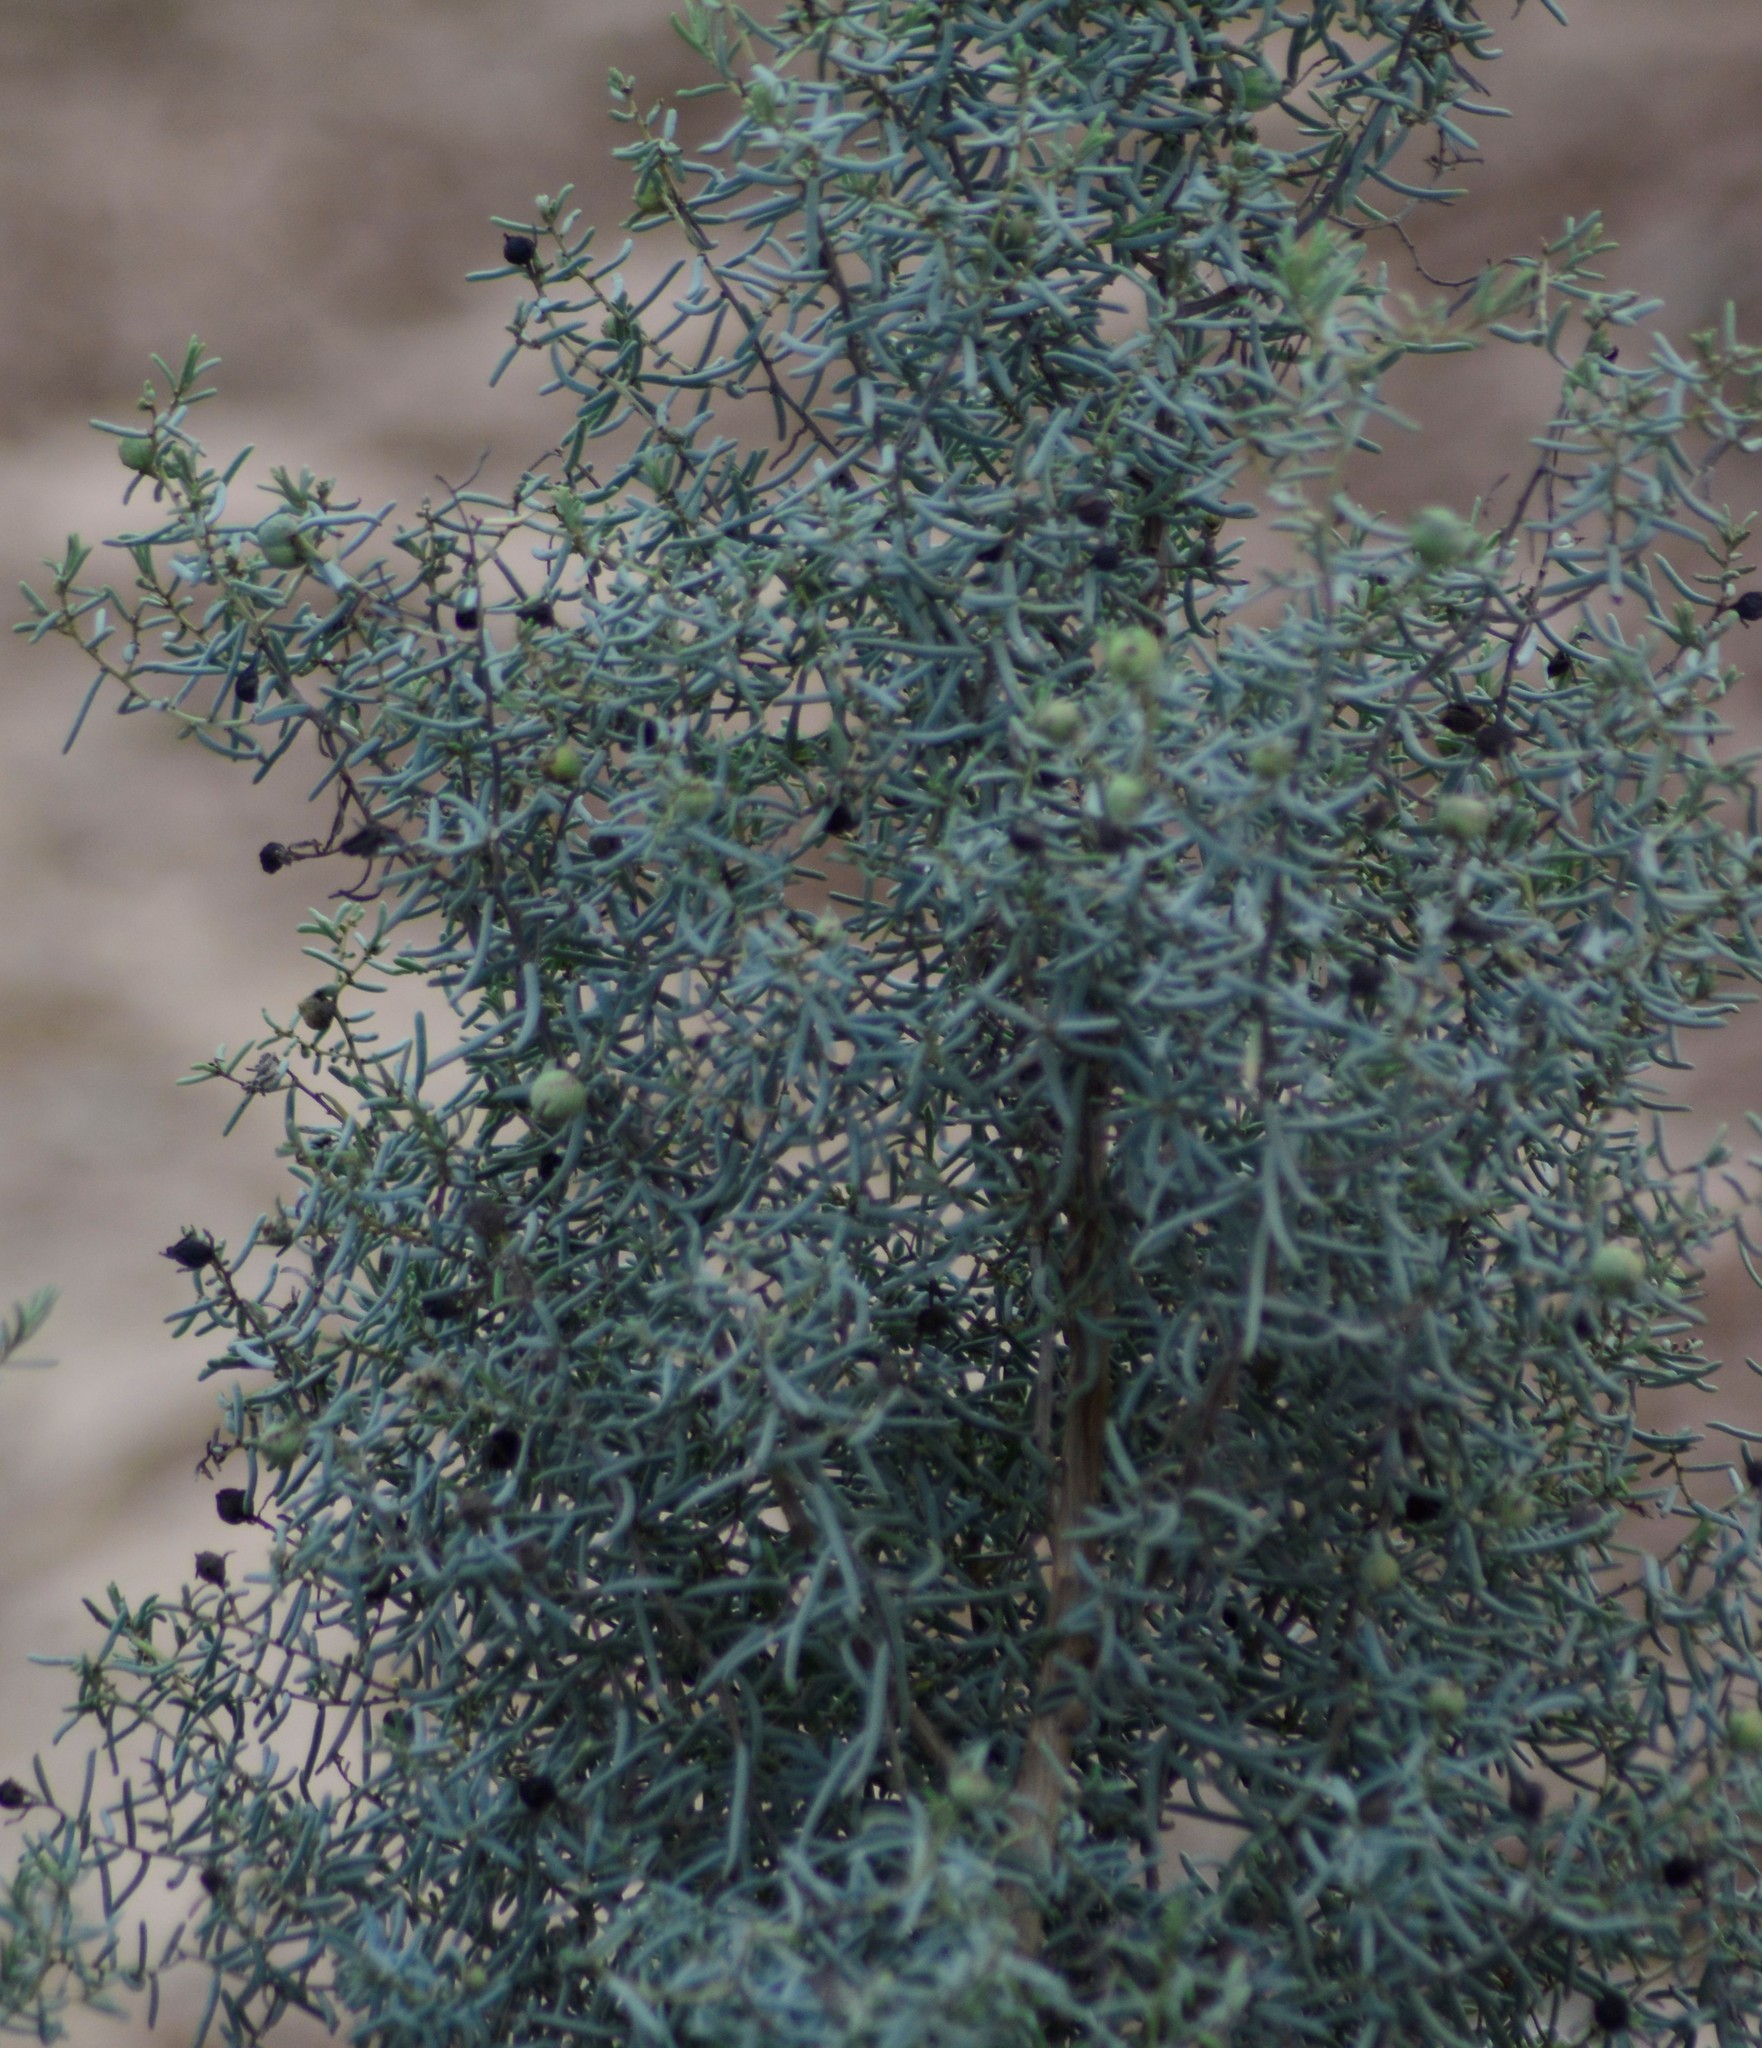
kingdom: Plantae
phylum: Tracheophyta
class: Magnoliopsida
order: Caryophyllales
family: Amaranthaceae
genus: Suaeda
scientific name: Suaeda divaricata
